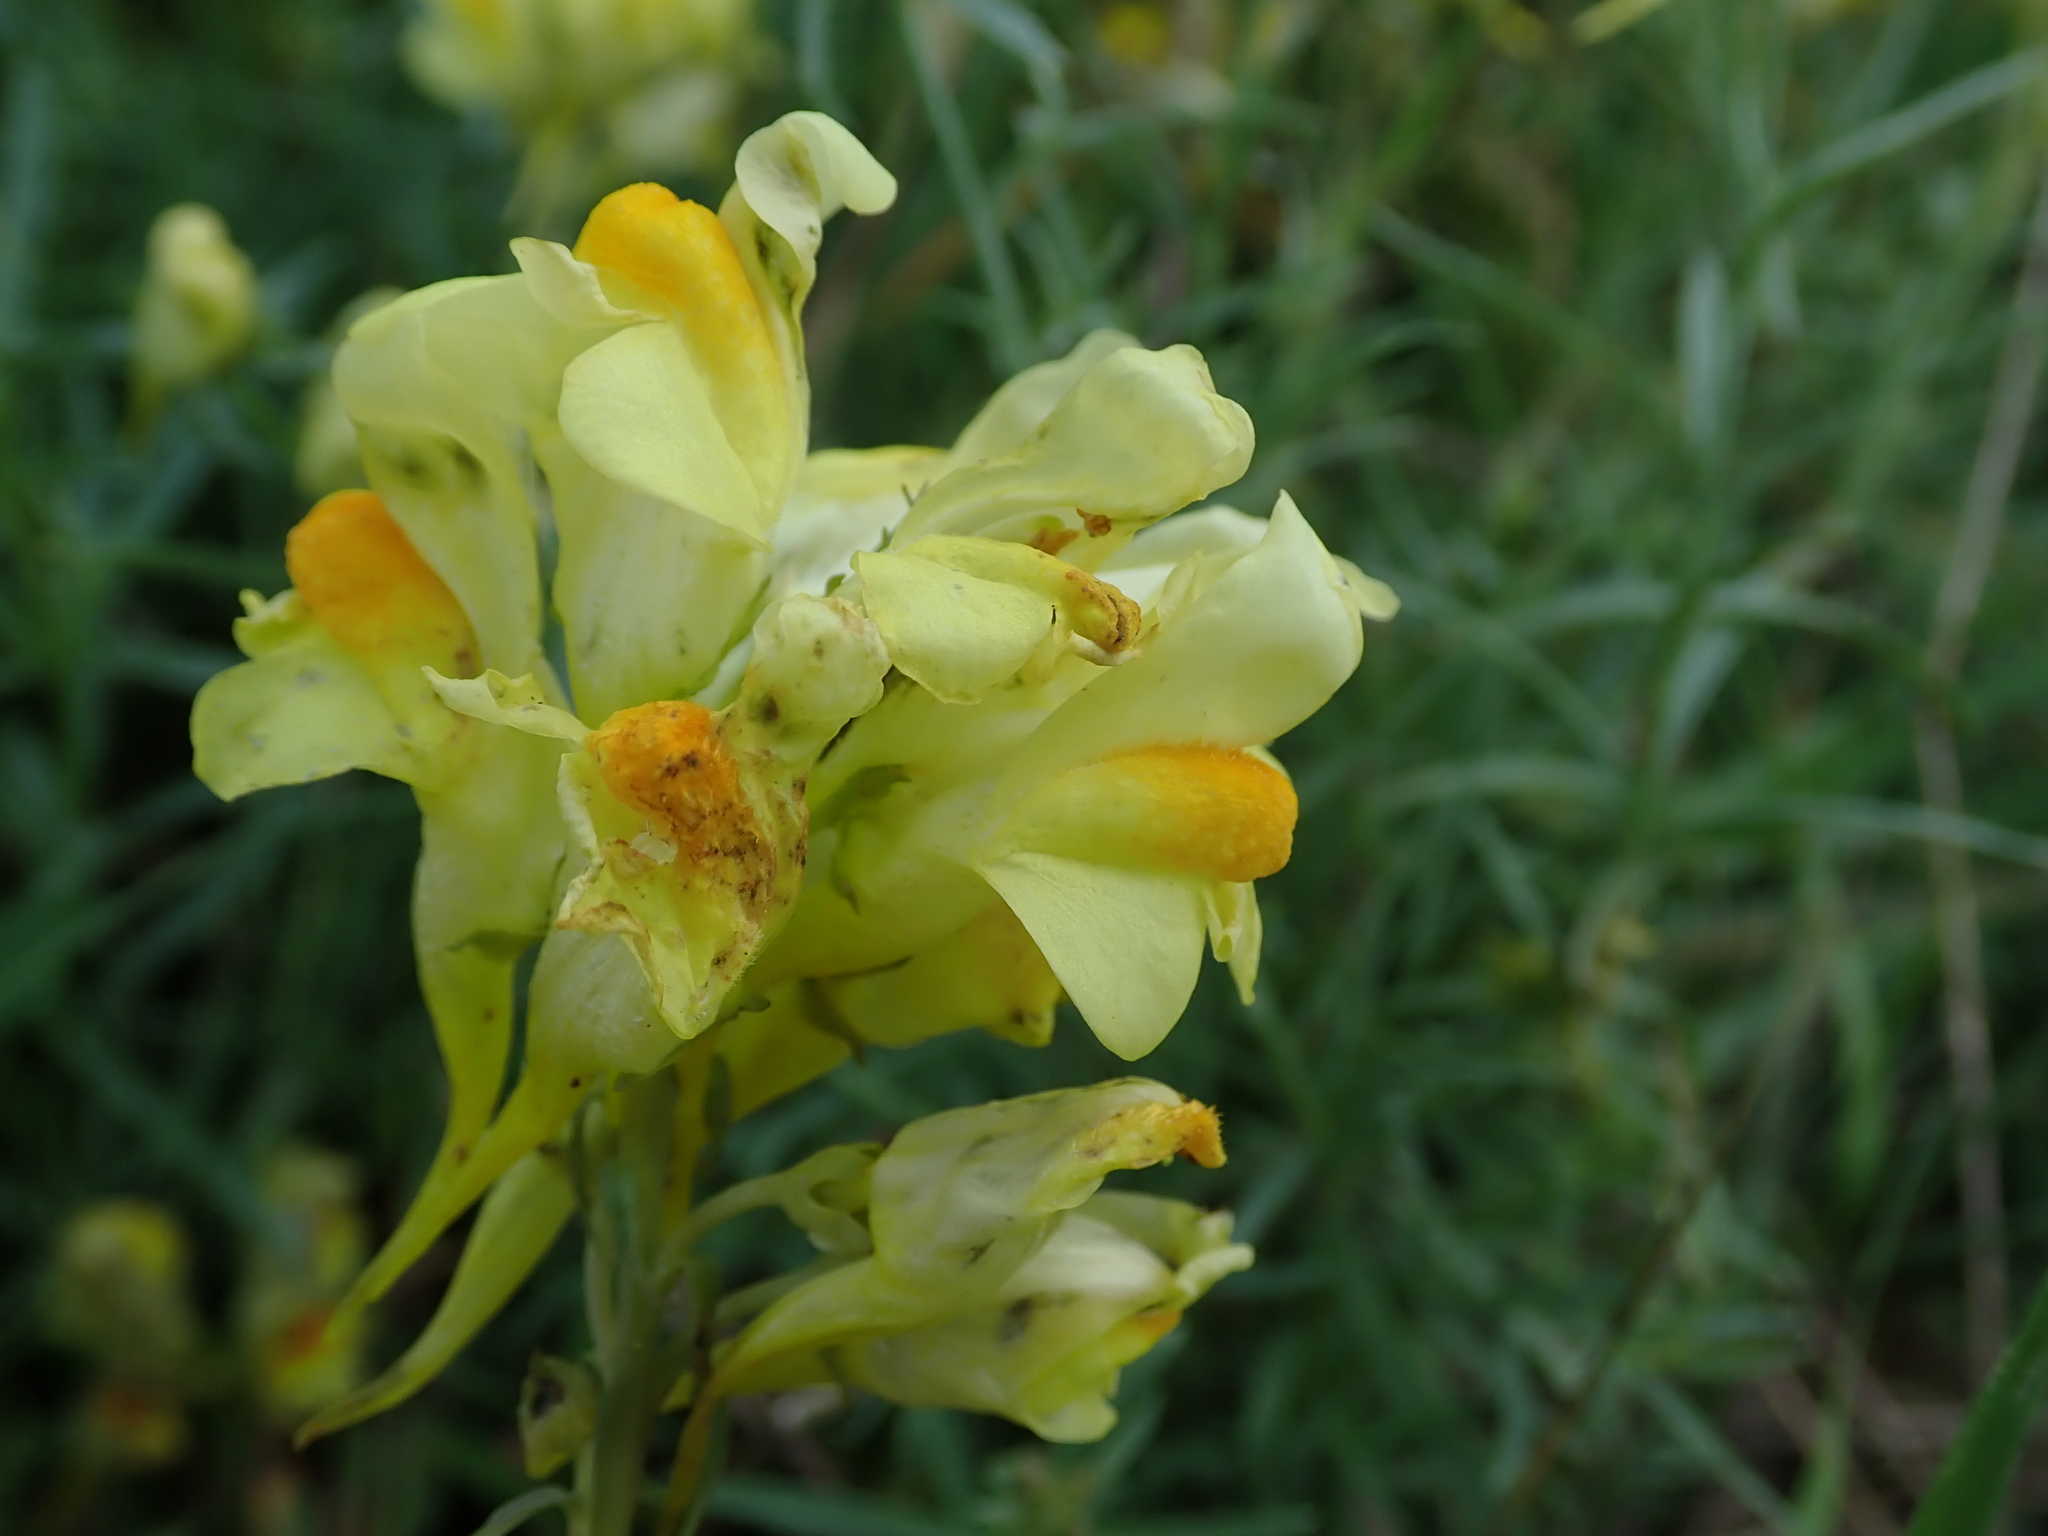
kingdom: Plantae
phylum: Tracheophyta
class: Magnoliopsida
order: Lamiales
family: Plantaginaceae
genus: Linaria
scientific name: Linaria vulgaris
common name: Butter and eggs
